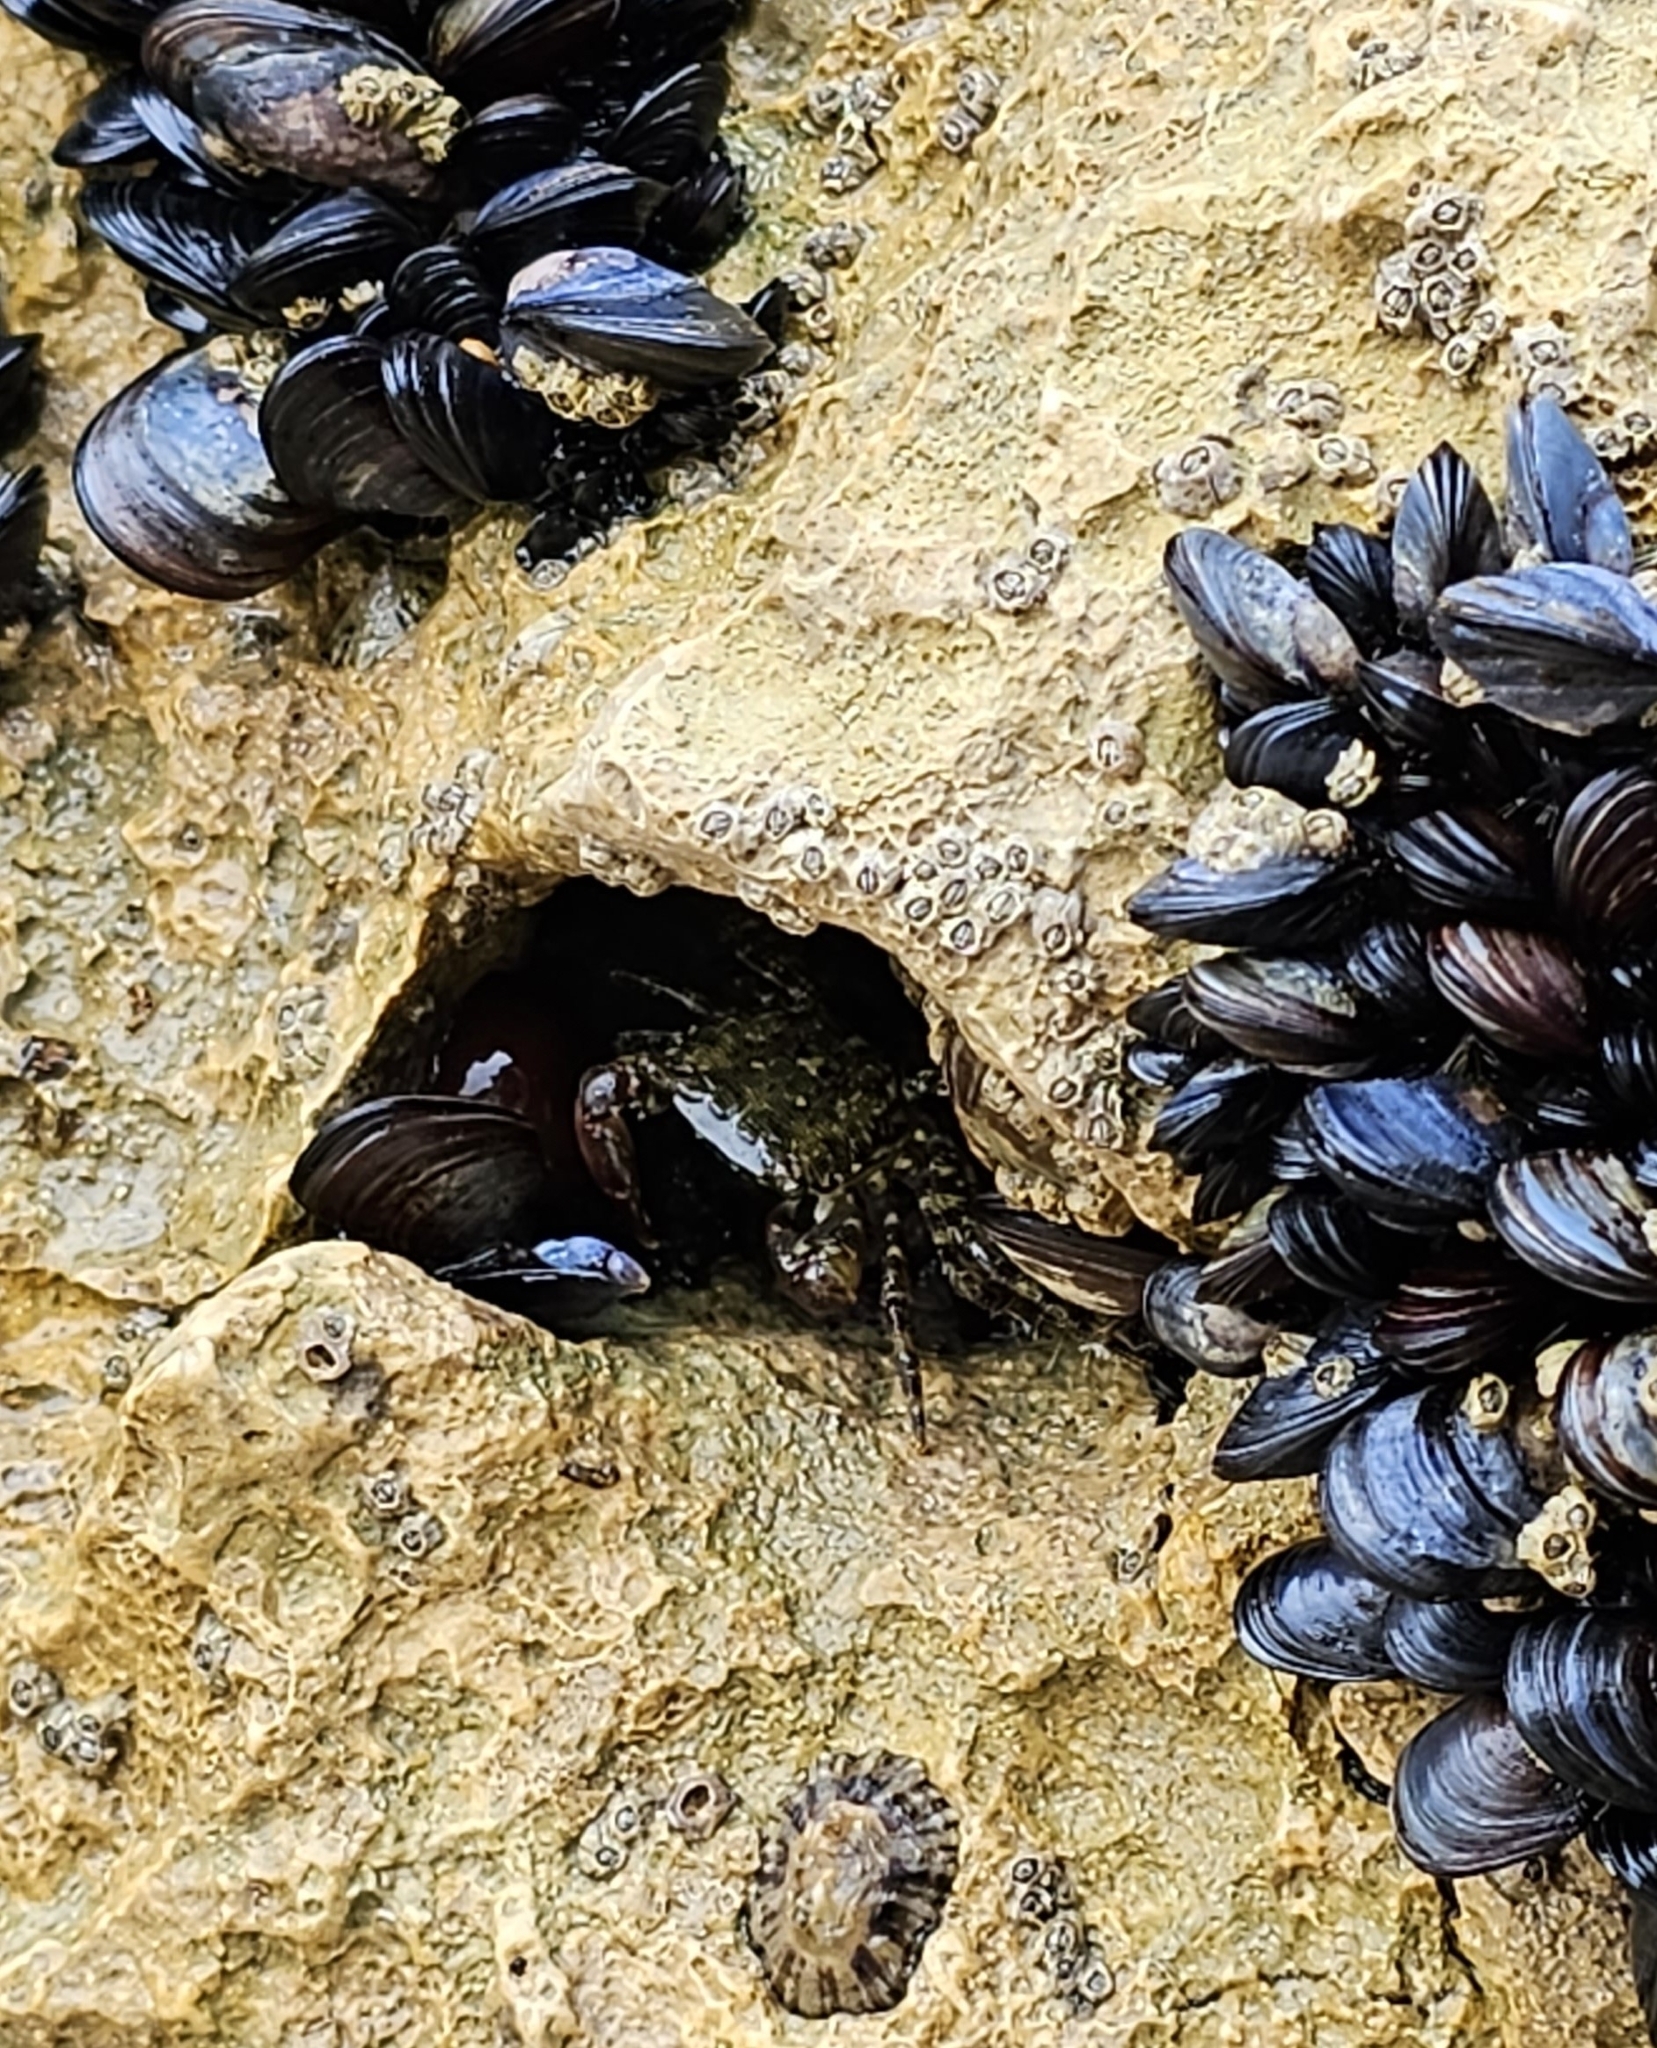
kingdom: Animalia
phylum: Arthropoda
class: Malacostraca
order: Decapoda
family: Grapsidae
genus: Pachygrapsus
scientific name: Pachygrapsus marmoratus
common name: Marbled rock crab
